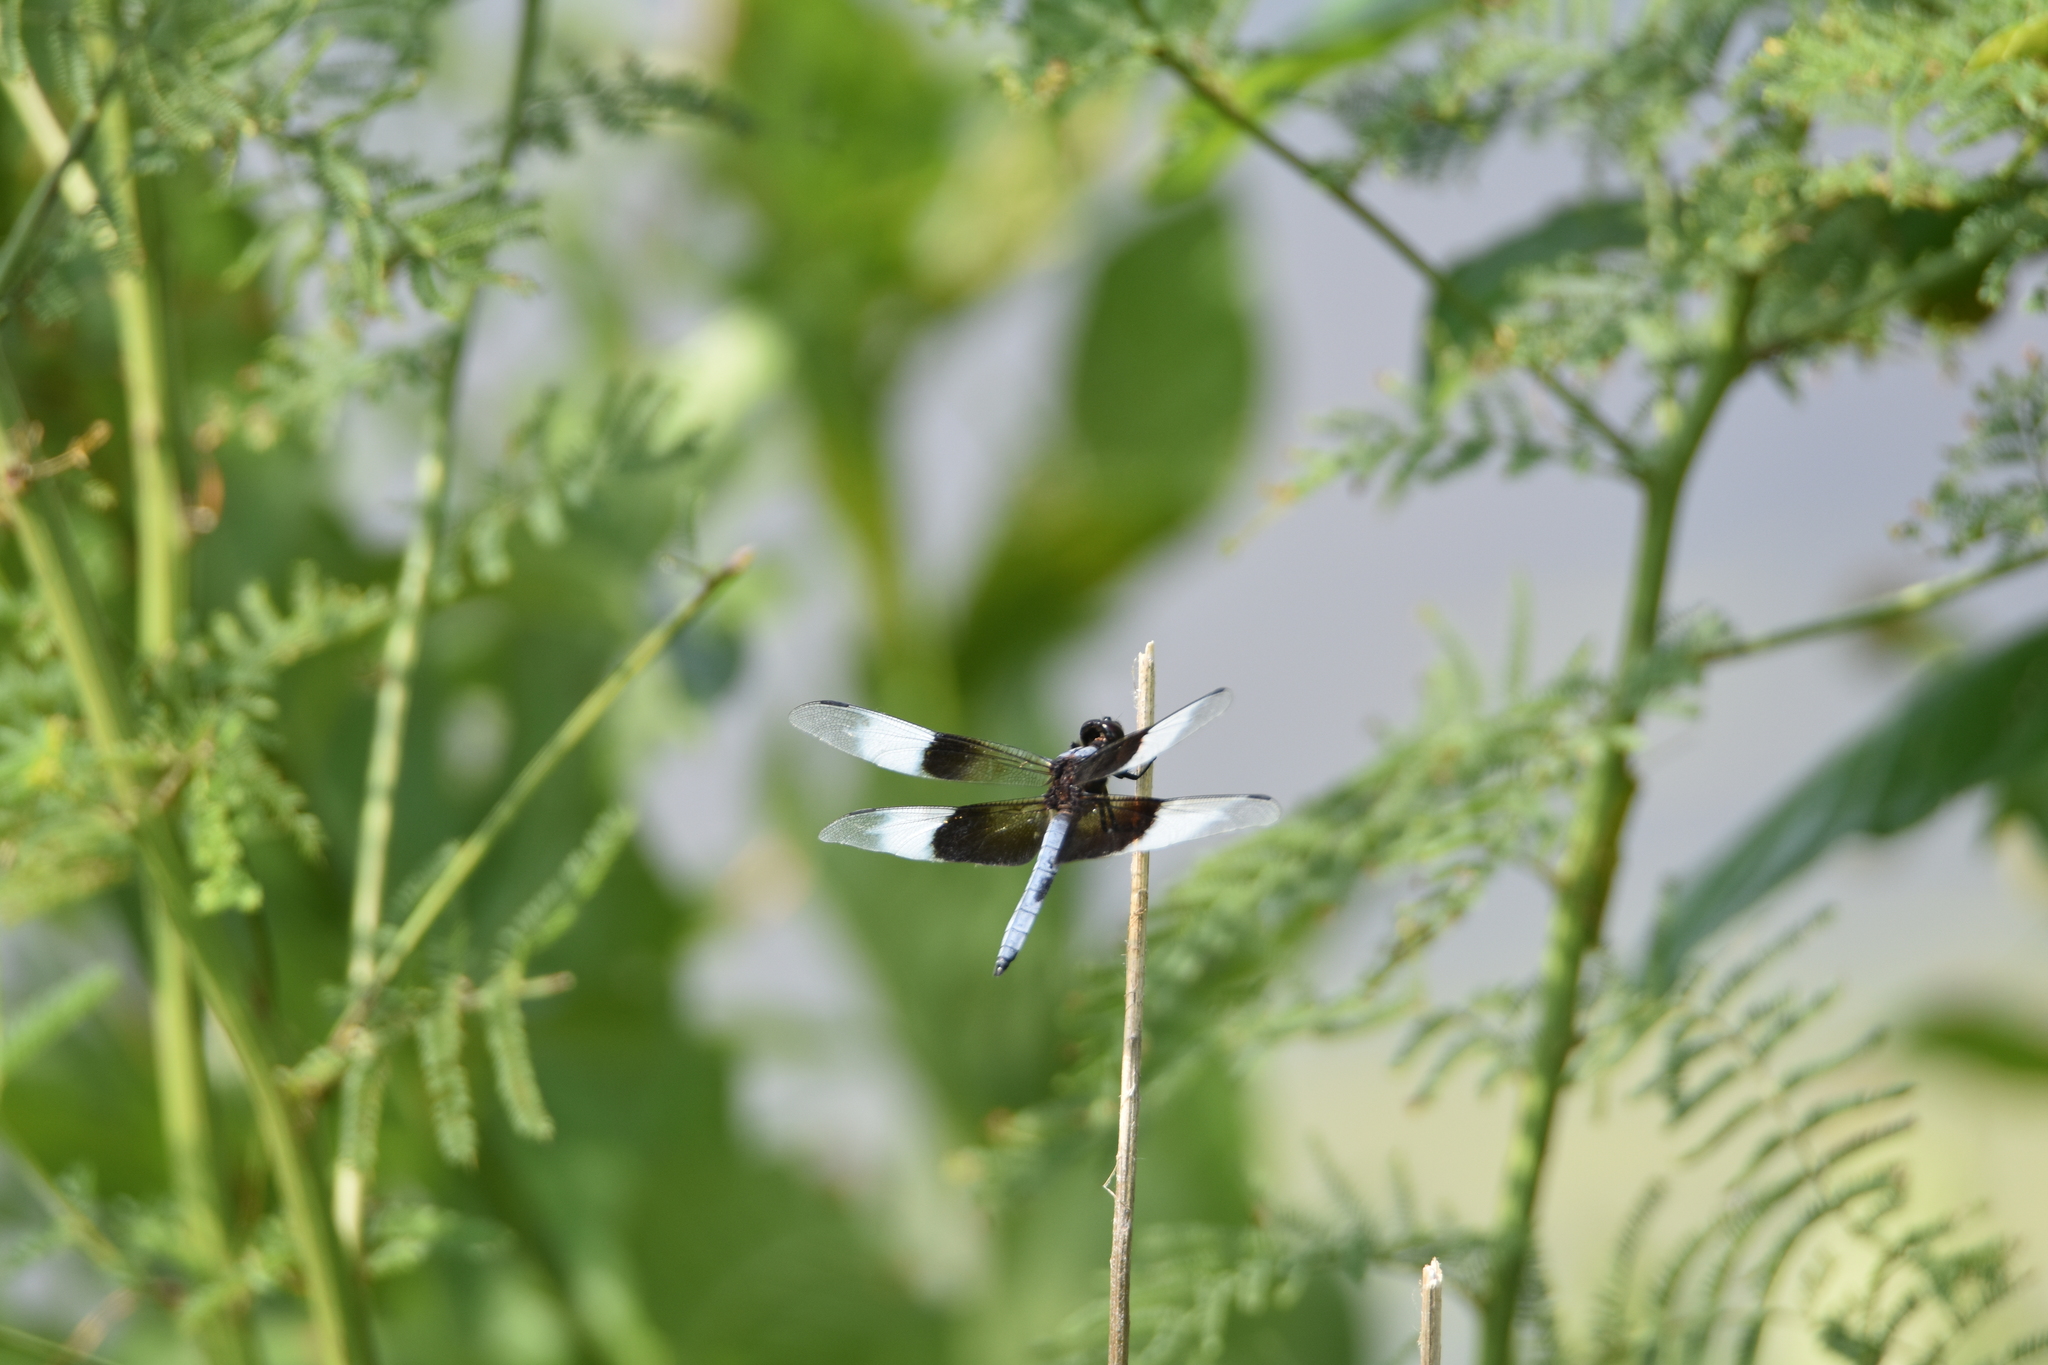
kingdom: Animalia
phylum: Arthropoda
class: Insecta
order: Odonata
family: Libellulidae
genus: Libellula
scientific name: Libellula luctuosa
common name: Widow skimmer
